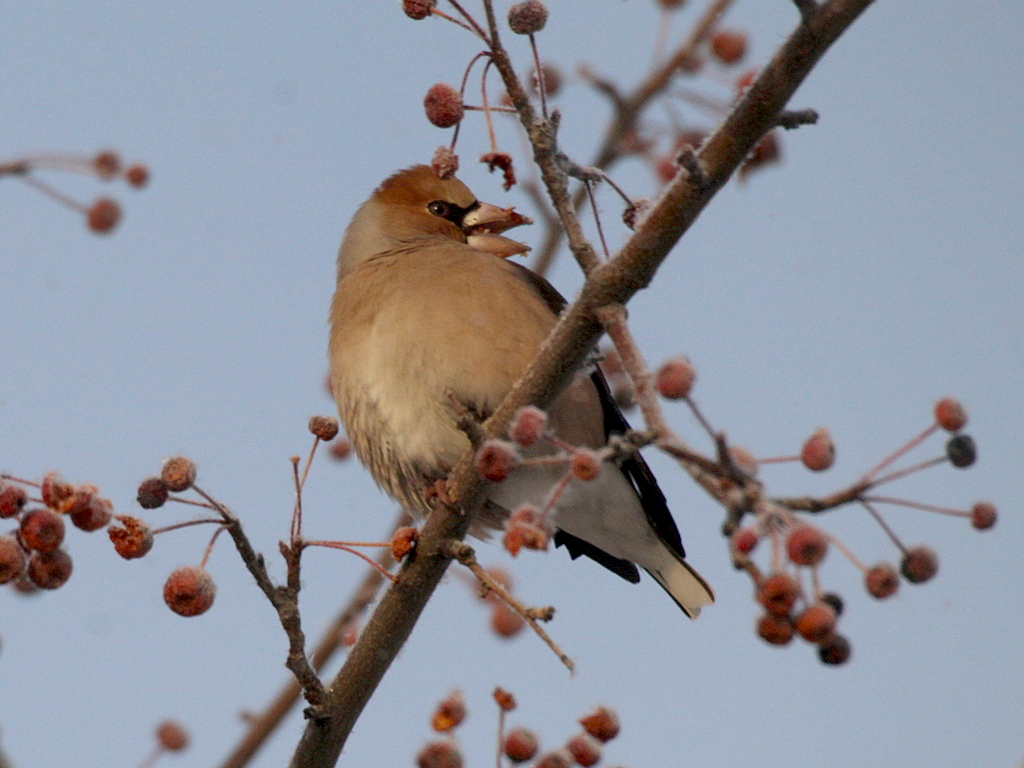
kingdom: Animalia
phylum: Chordata
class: Aves
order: Passeriformes
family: Fringillidae
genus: Coccothraustes
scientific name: Coccothraustes coccothraustes
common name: Hawfinch
